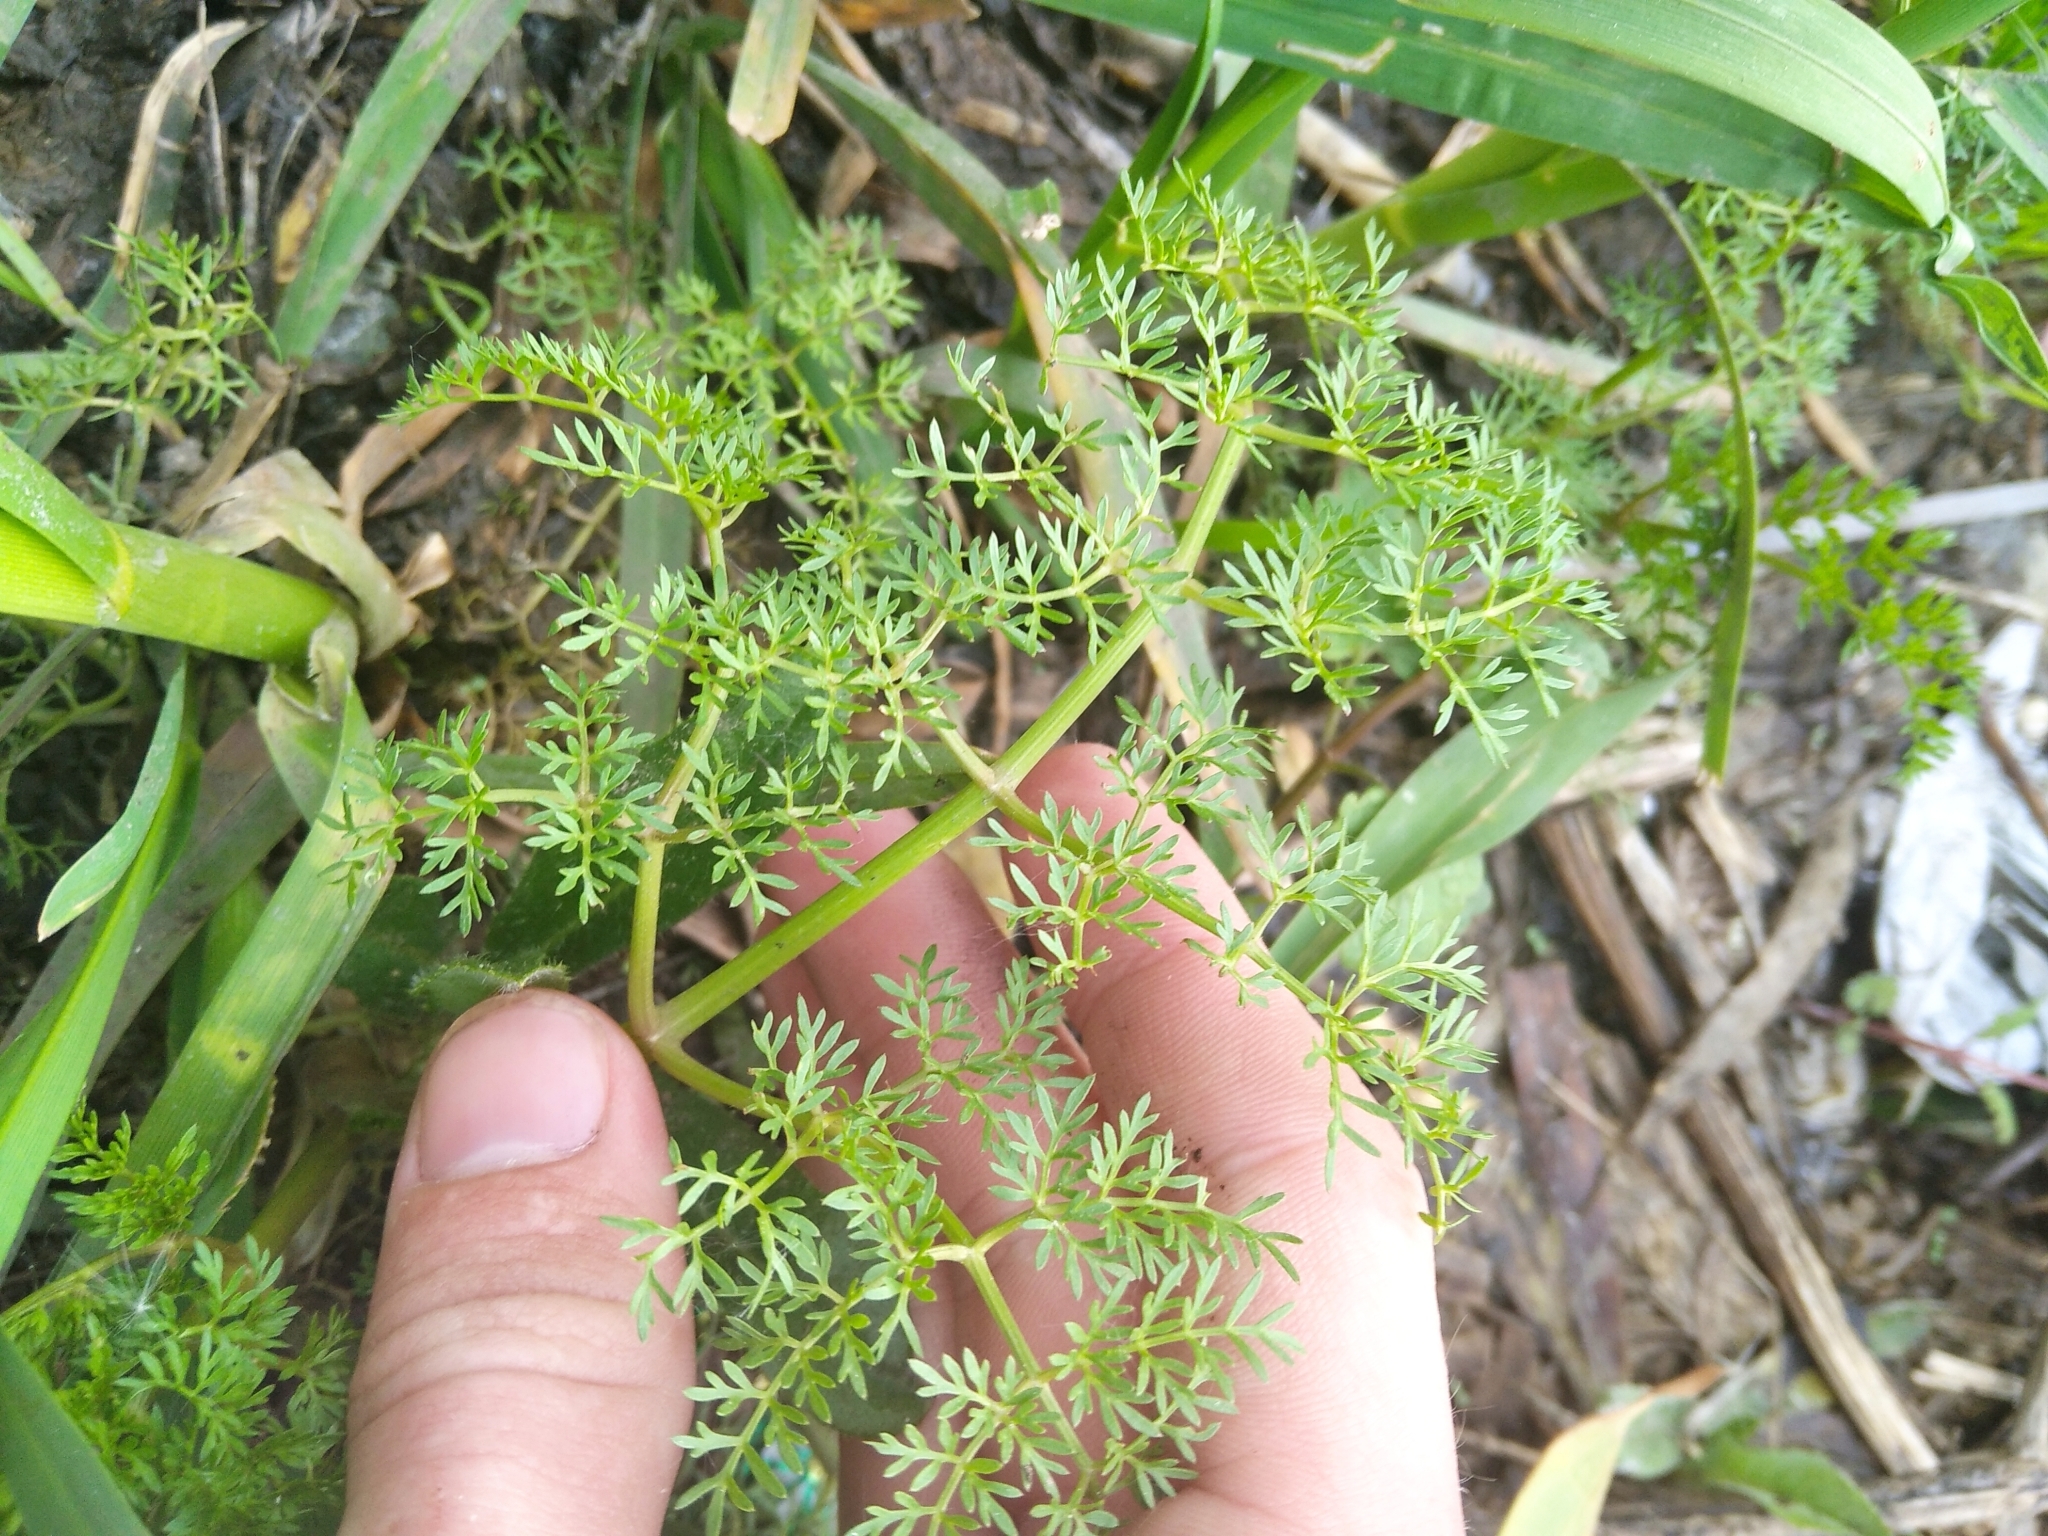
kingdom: Plantae
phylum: Tracheophyta
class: Magnoliopsida
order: Apiales
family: Apiaceae
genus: Oenanthe
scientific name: Oenanthe aquatica
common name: Fine-leaved water-dropwort
